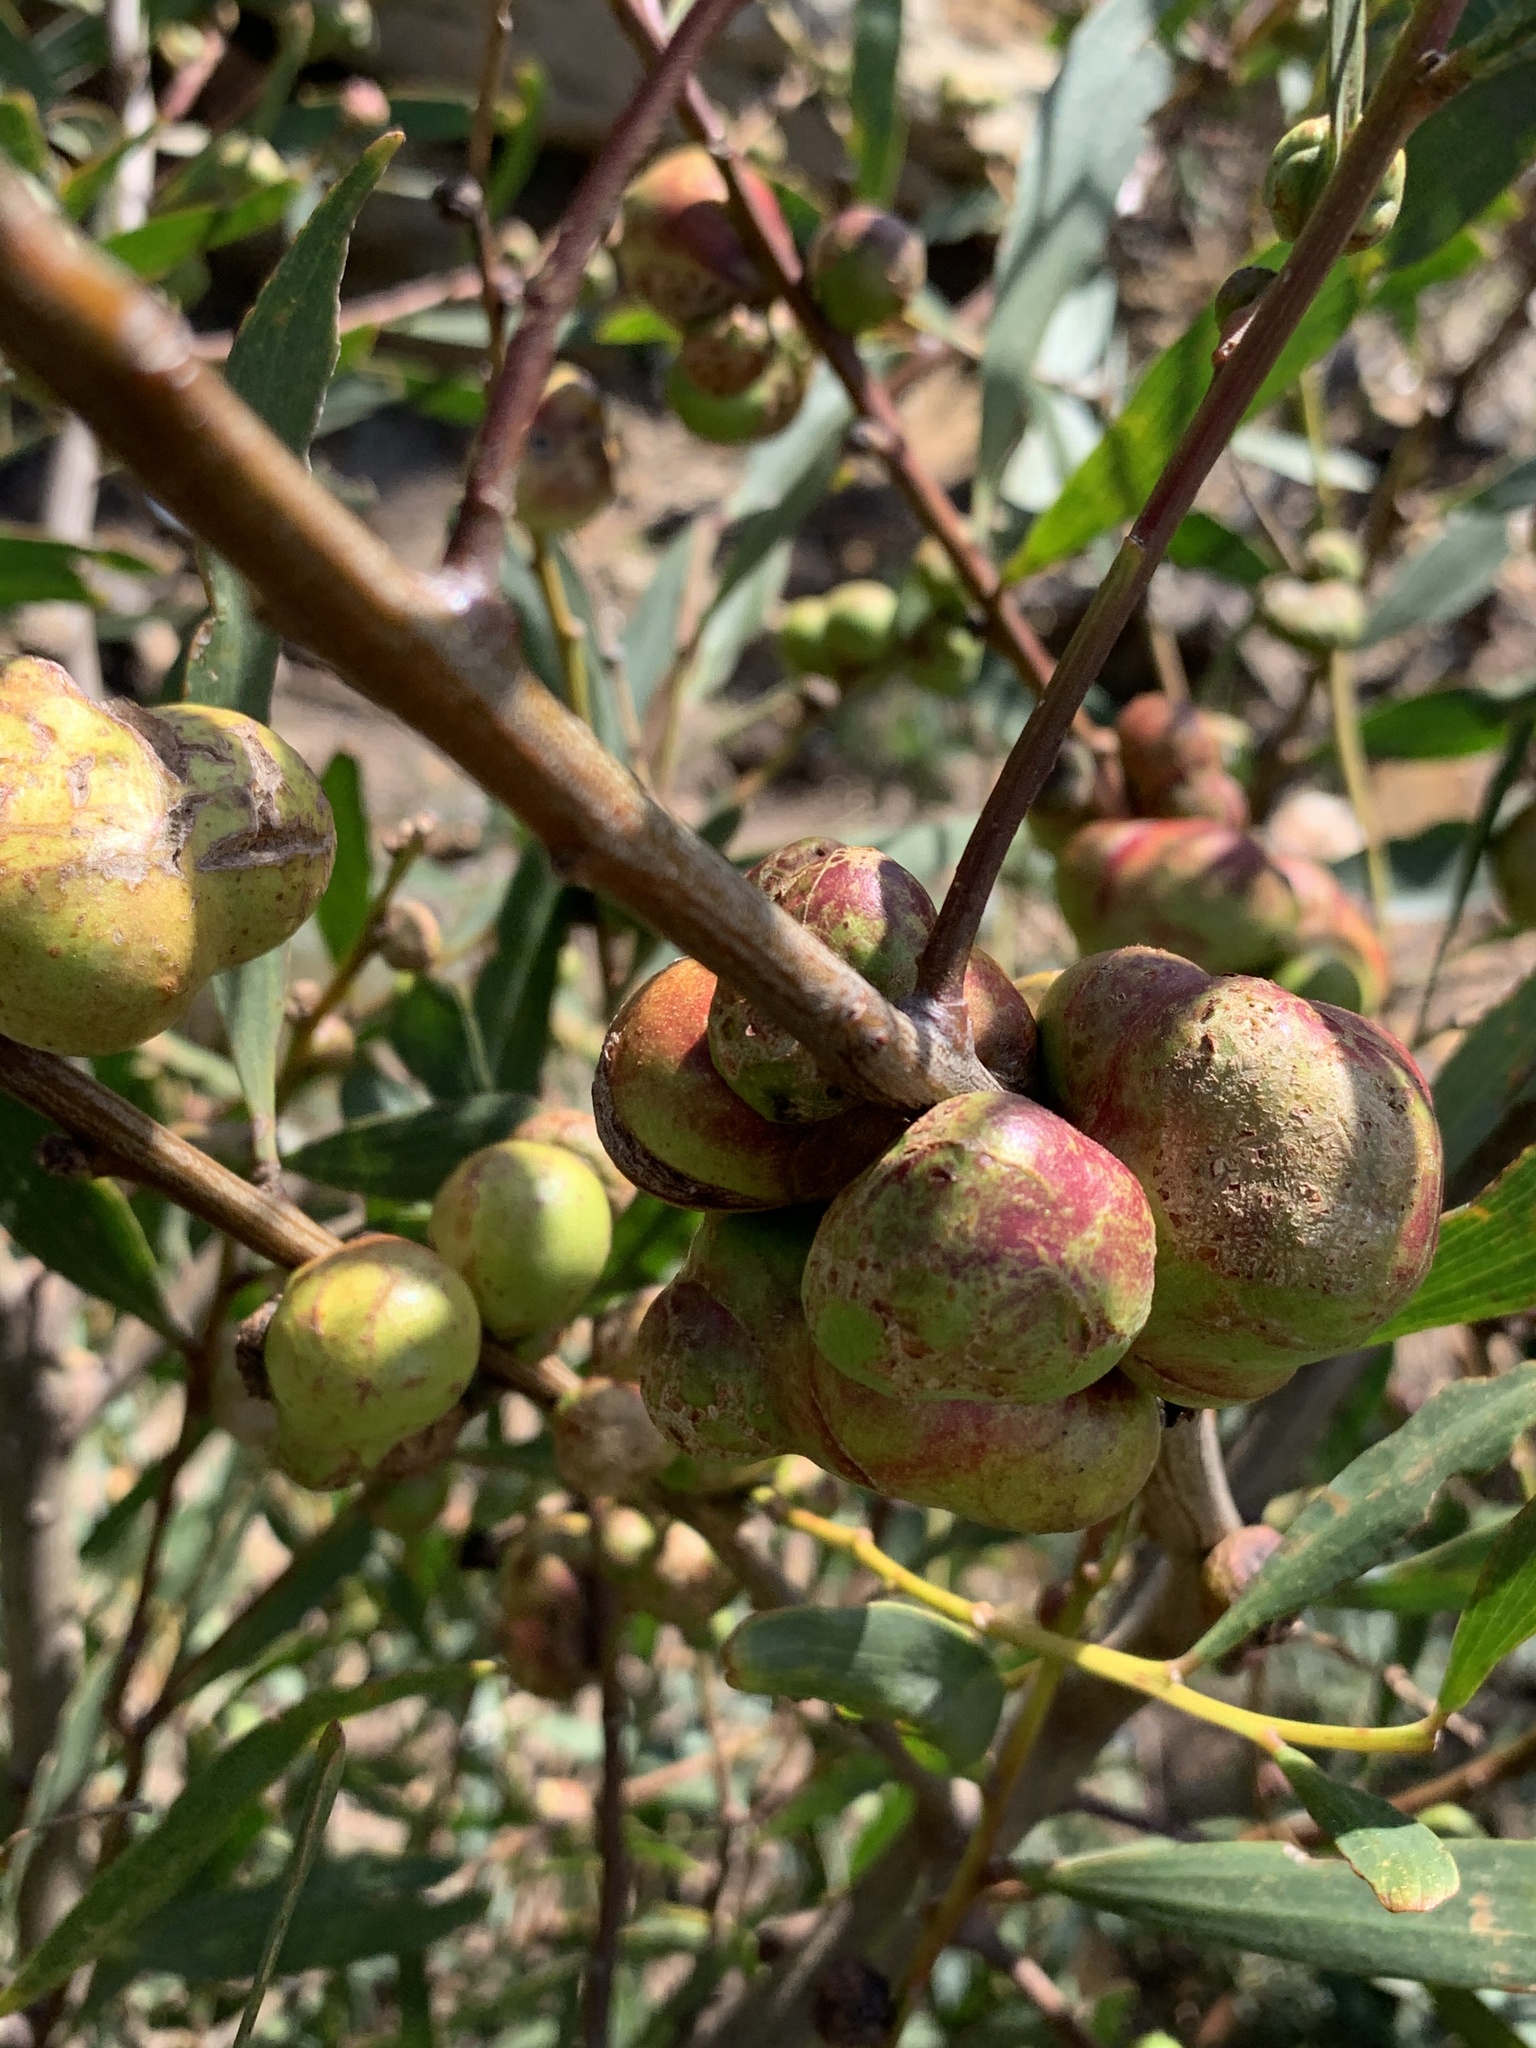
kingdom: Plantae
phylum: Tracheophyta
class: Magnoliopsida
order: Fabales
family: Fabaceae
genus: Acacia
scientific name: Acacia longifolia
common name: Sydney golden wattle
